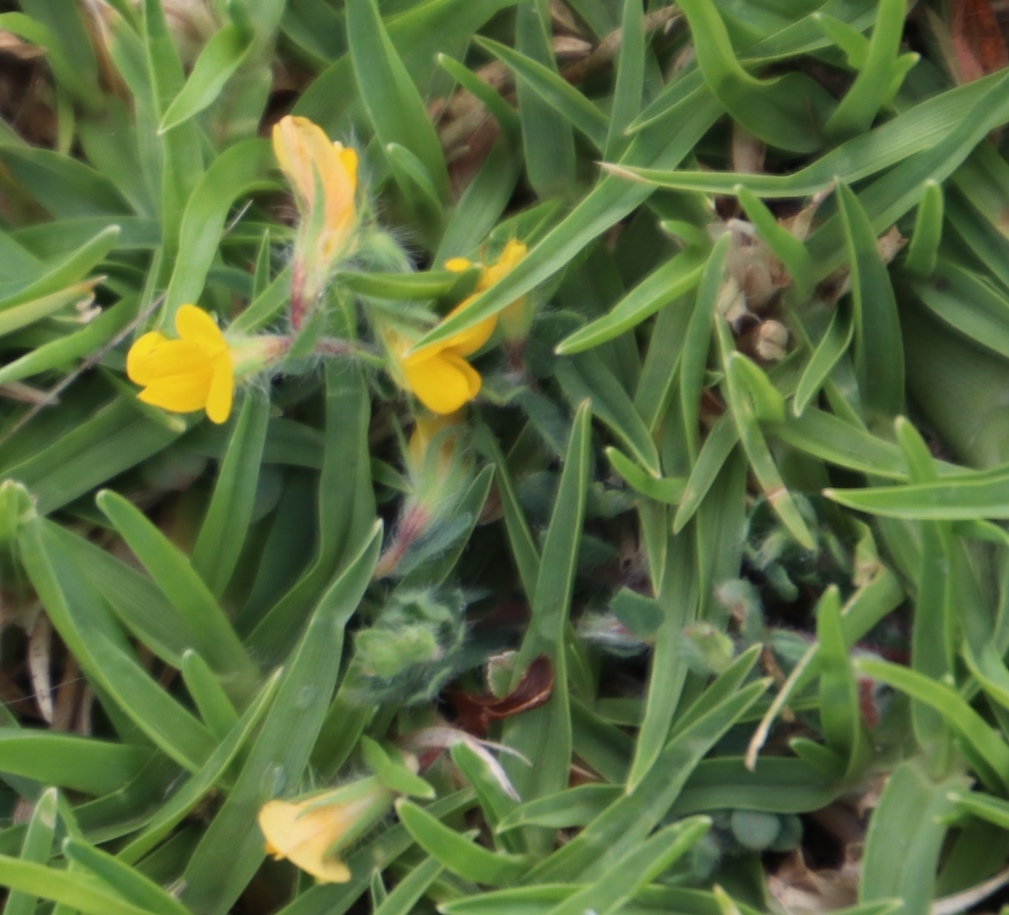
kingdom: Plantae
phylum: Tracheophyta
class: Magnoliopsida
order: Fabales
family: Fabaceae
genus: Lotus
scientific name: Lotus subbiflorus
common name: Hairy bird's-foot trefoil
